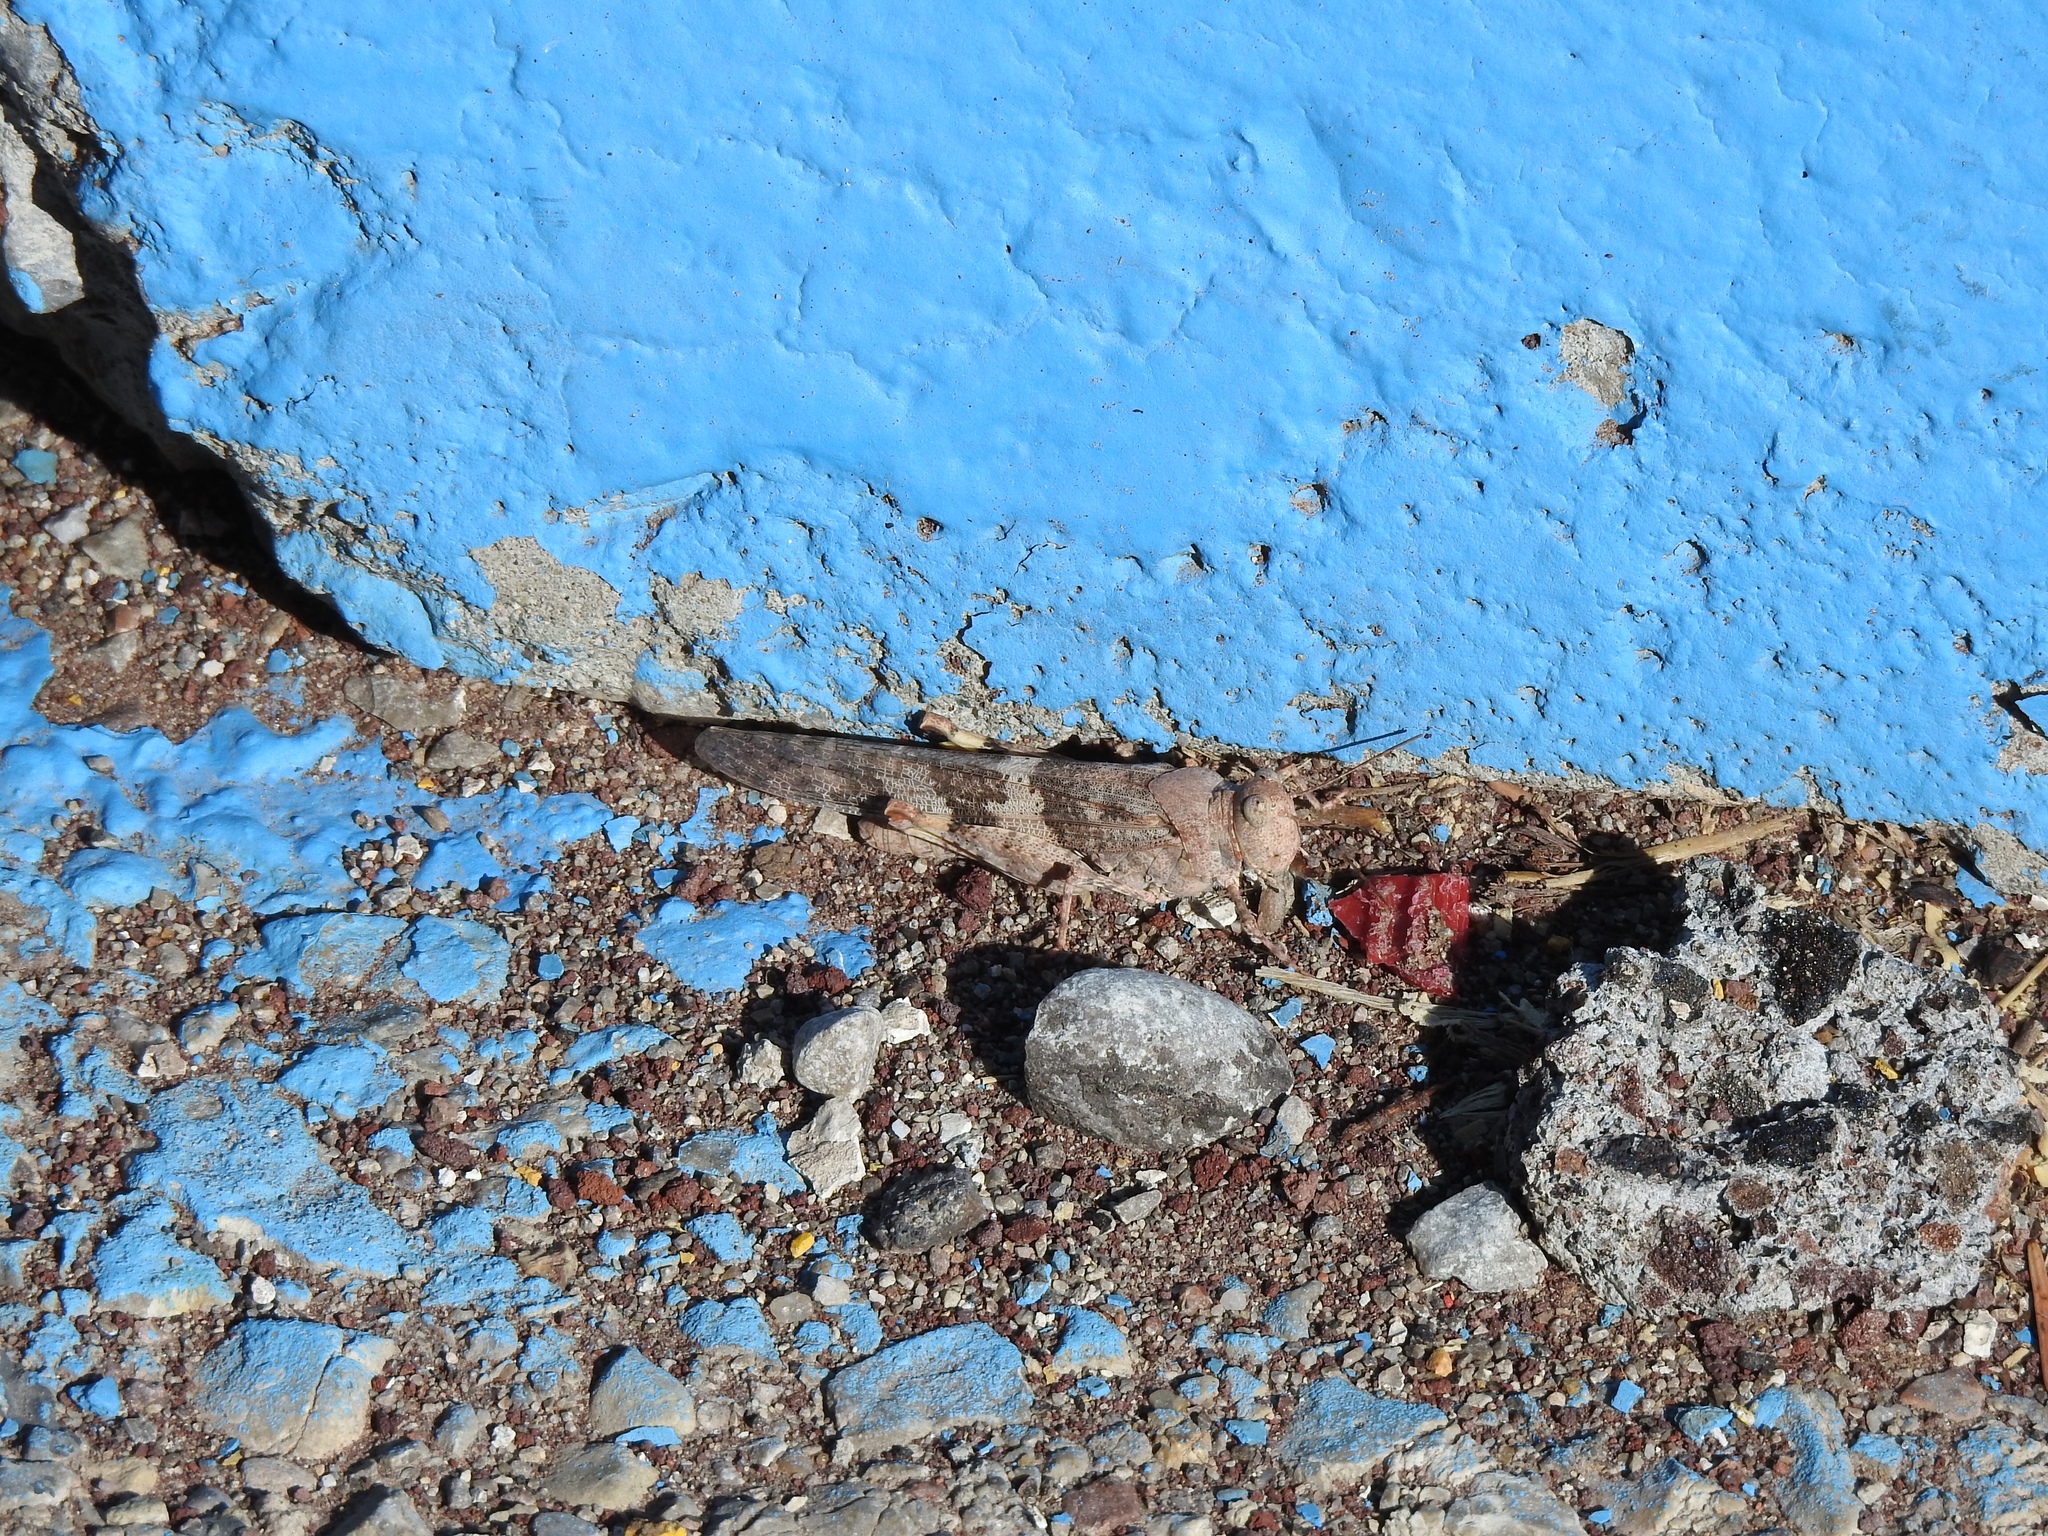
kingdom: Animalia
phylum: Arthropoda
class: Insecta
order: Orthoptera
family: Acrididae
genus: Trimerotropis
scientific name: Trimerotropis pallidipennis
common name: Pallid-winged grasshopper
